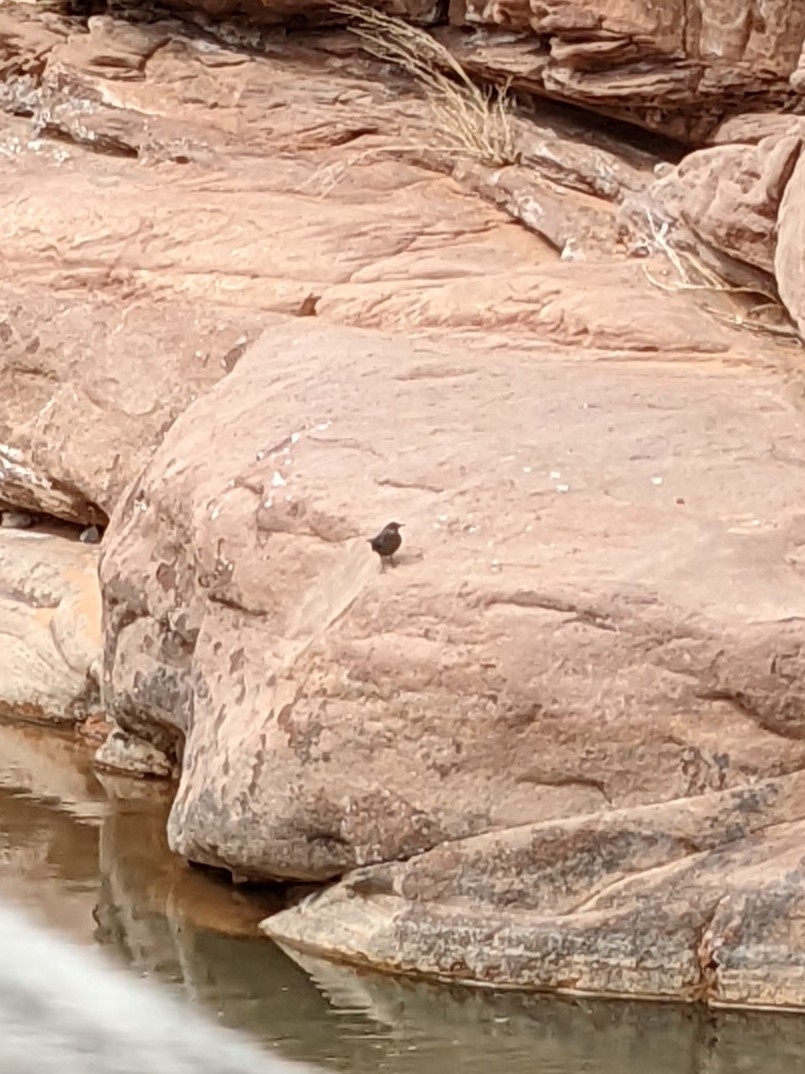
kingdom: Animalia
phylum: Chordata
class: Aves
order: Passeriformes
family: Cinclidae
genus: Cinclus
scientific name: Cinclus mexicanus
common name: American dipper
